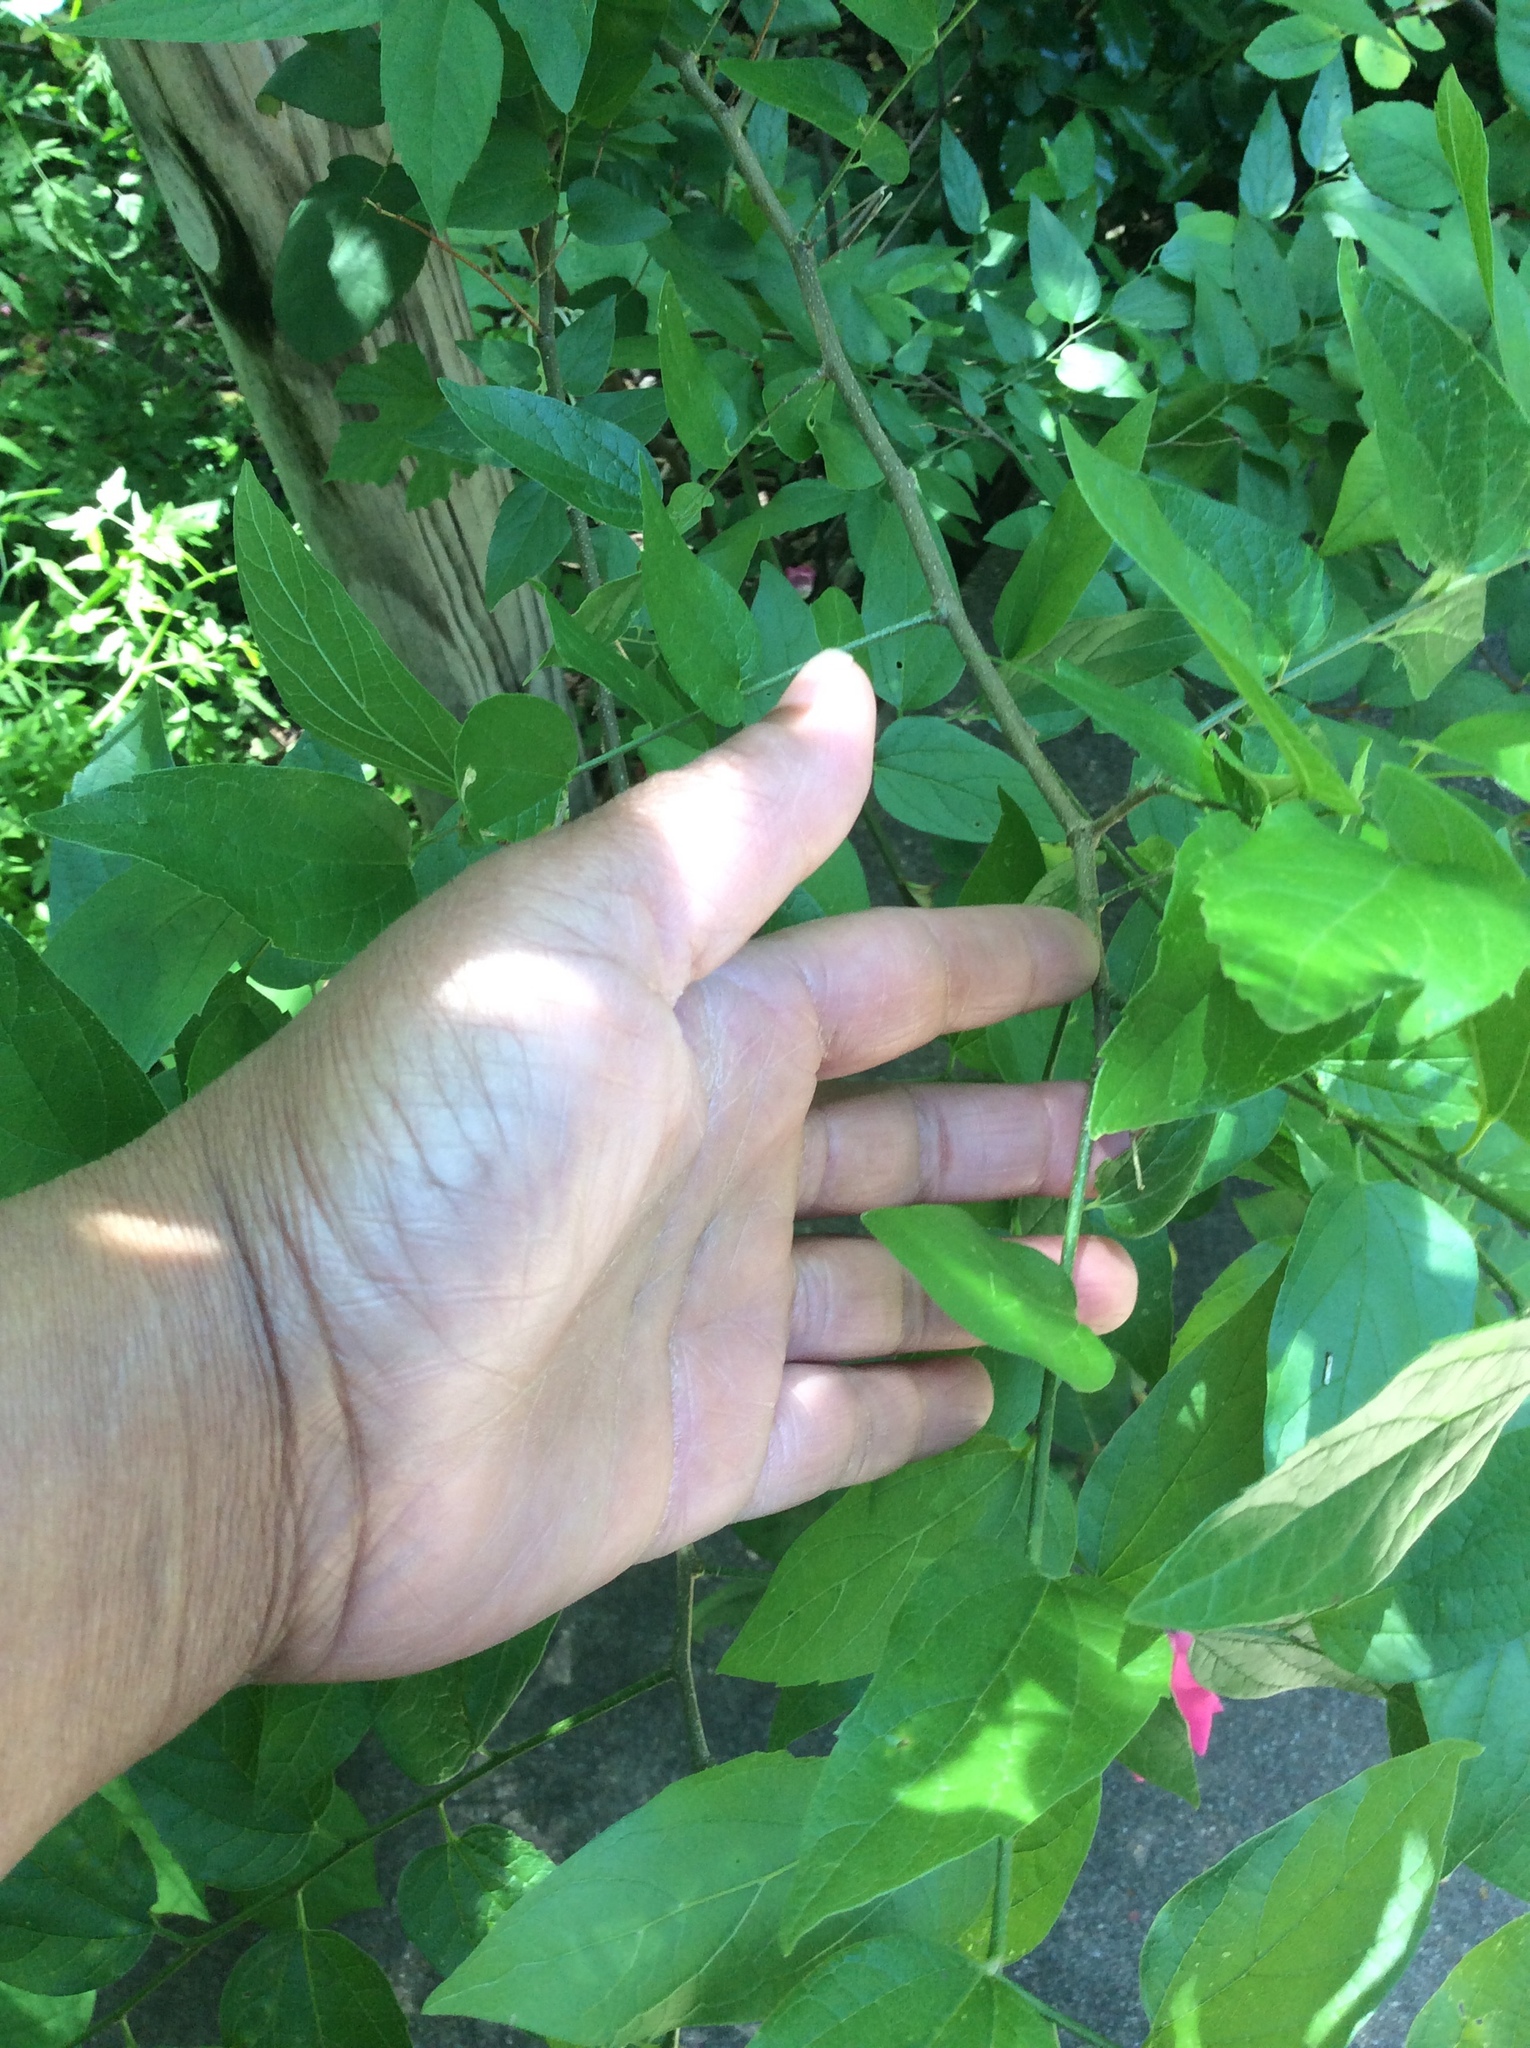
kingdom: Plantae
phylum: Tracheophyta
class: Magnoliopsida
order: Rosales
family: Cannabaceae
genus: Celtis
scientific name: Celtis laevigata
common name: Sugarberry
